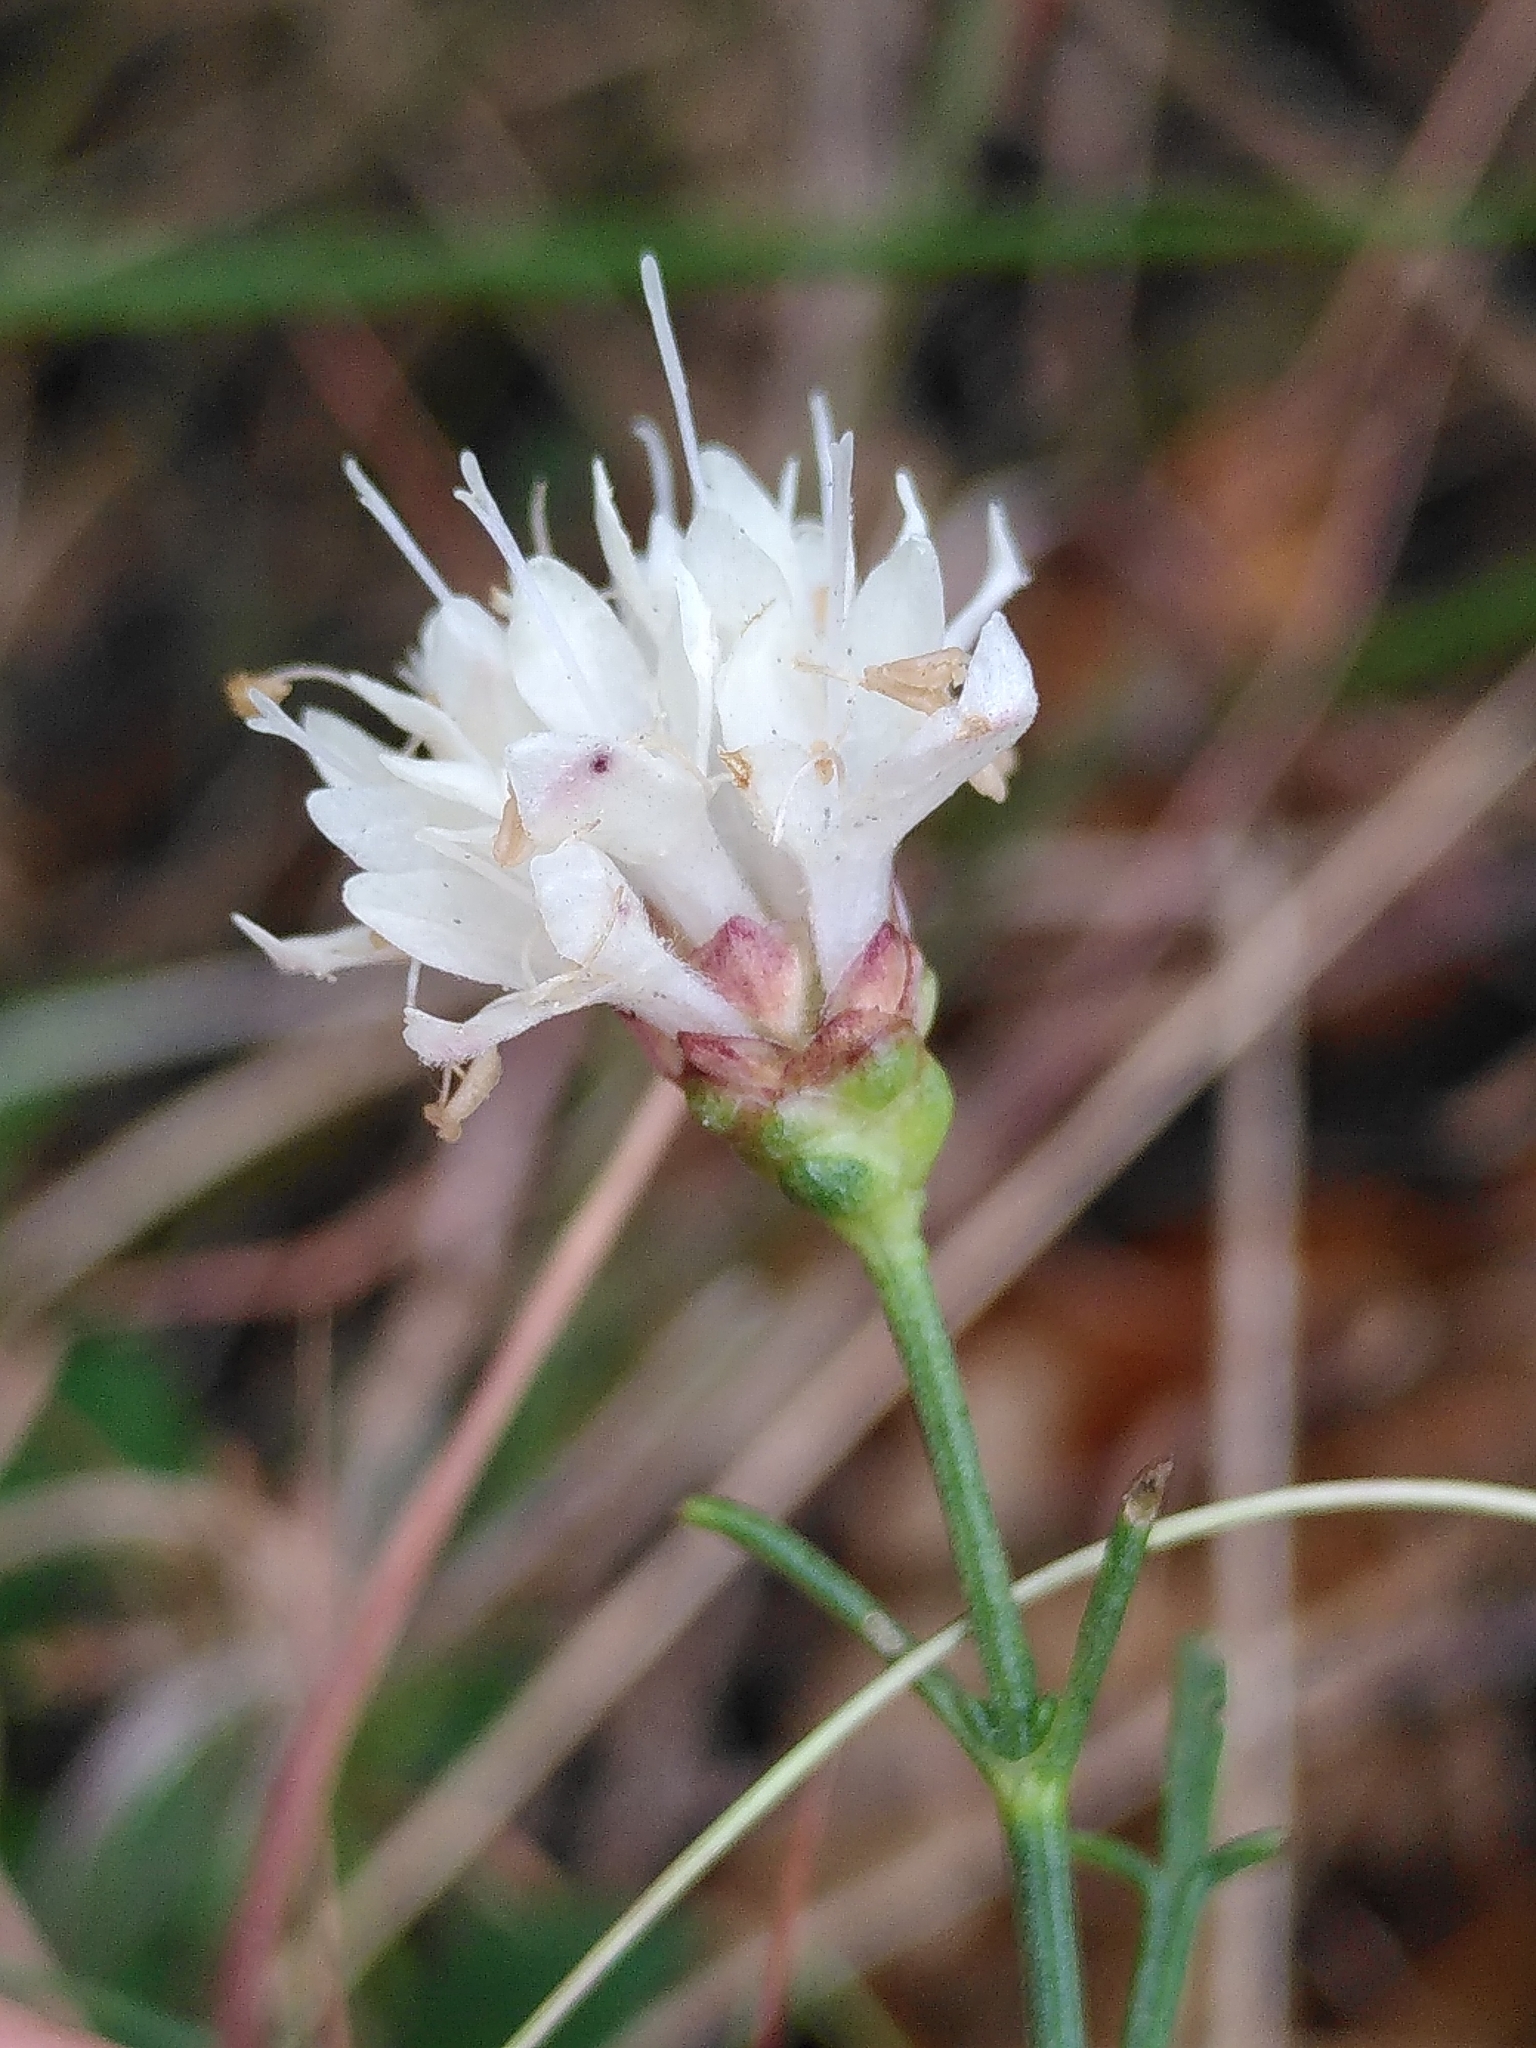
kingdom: Plantae
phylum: Tracheophyta
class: Magnoliopsida
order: Dipsacales
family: Caprifoliaceae
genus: Cephalaria
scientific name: Cephalaria leucantha
